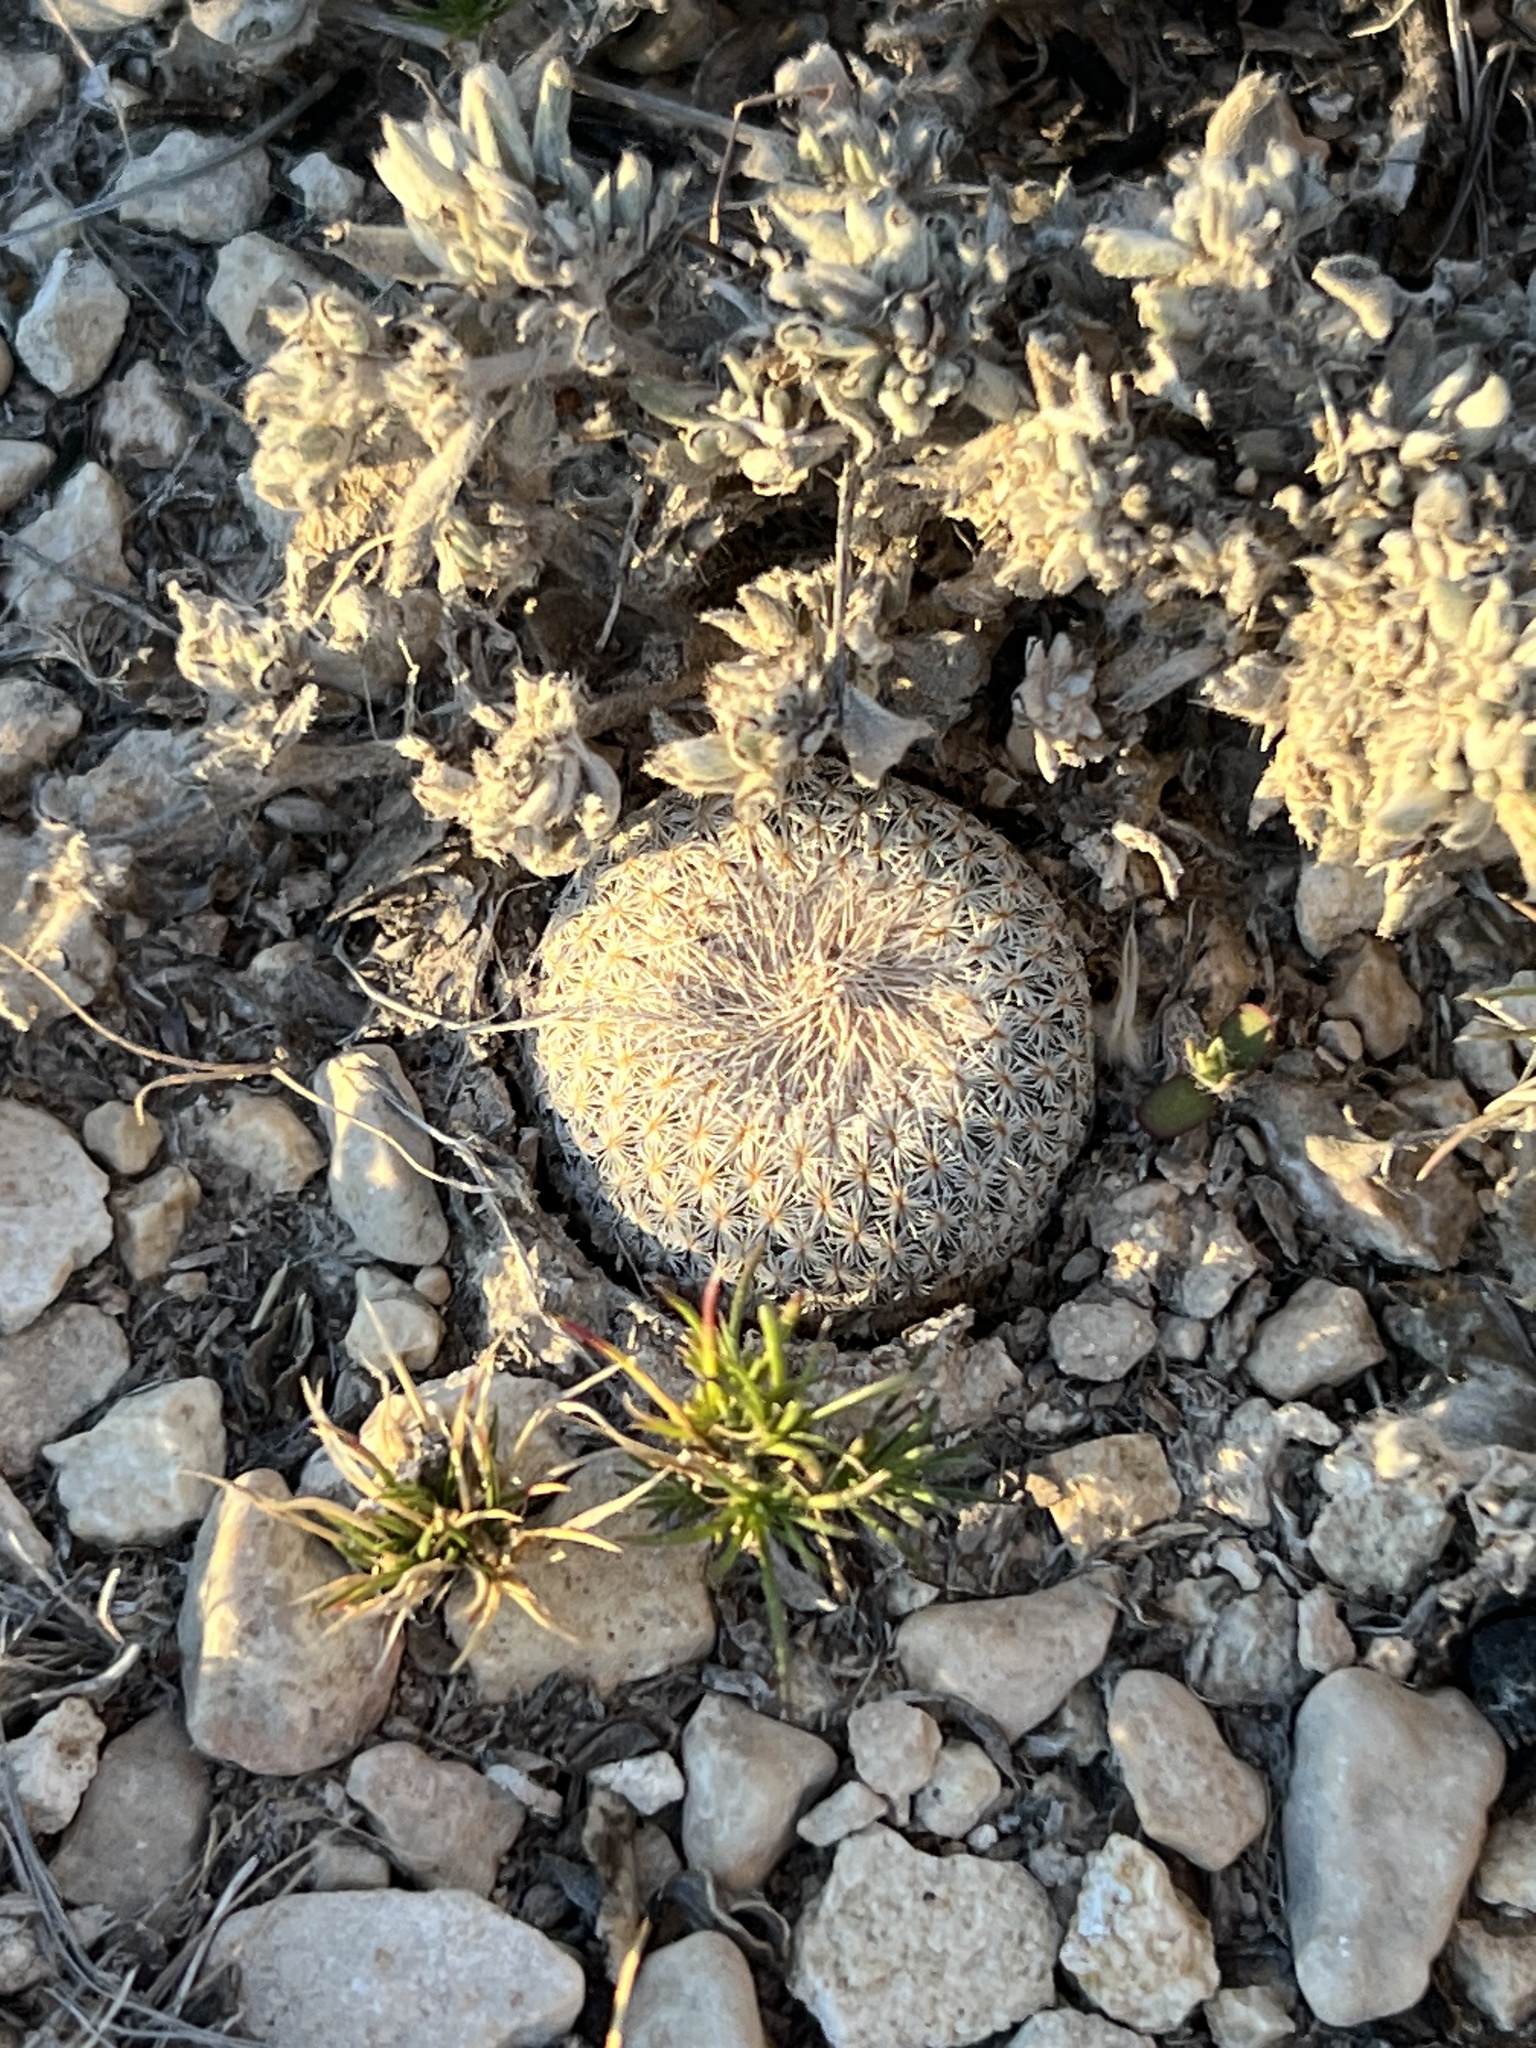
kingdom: Plantae
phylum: Tracheophyta
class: Magnoliopsida
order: Caryophyllales
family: Cactaceae
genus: Epithelantha
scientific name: Epithelantha micromeris
